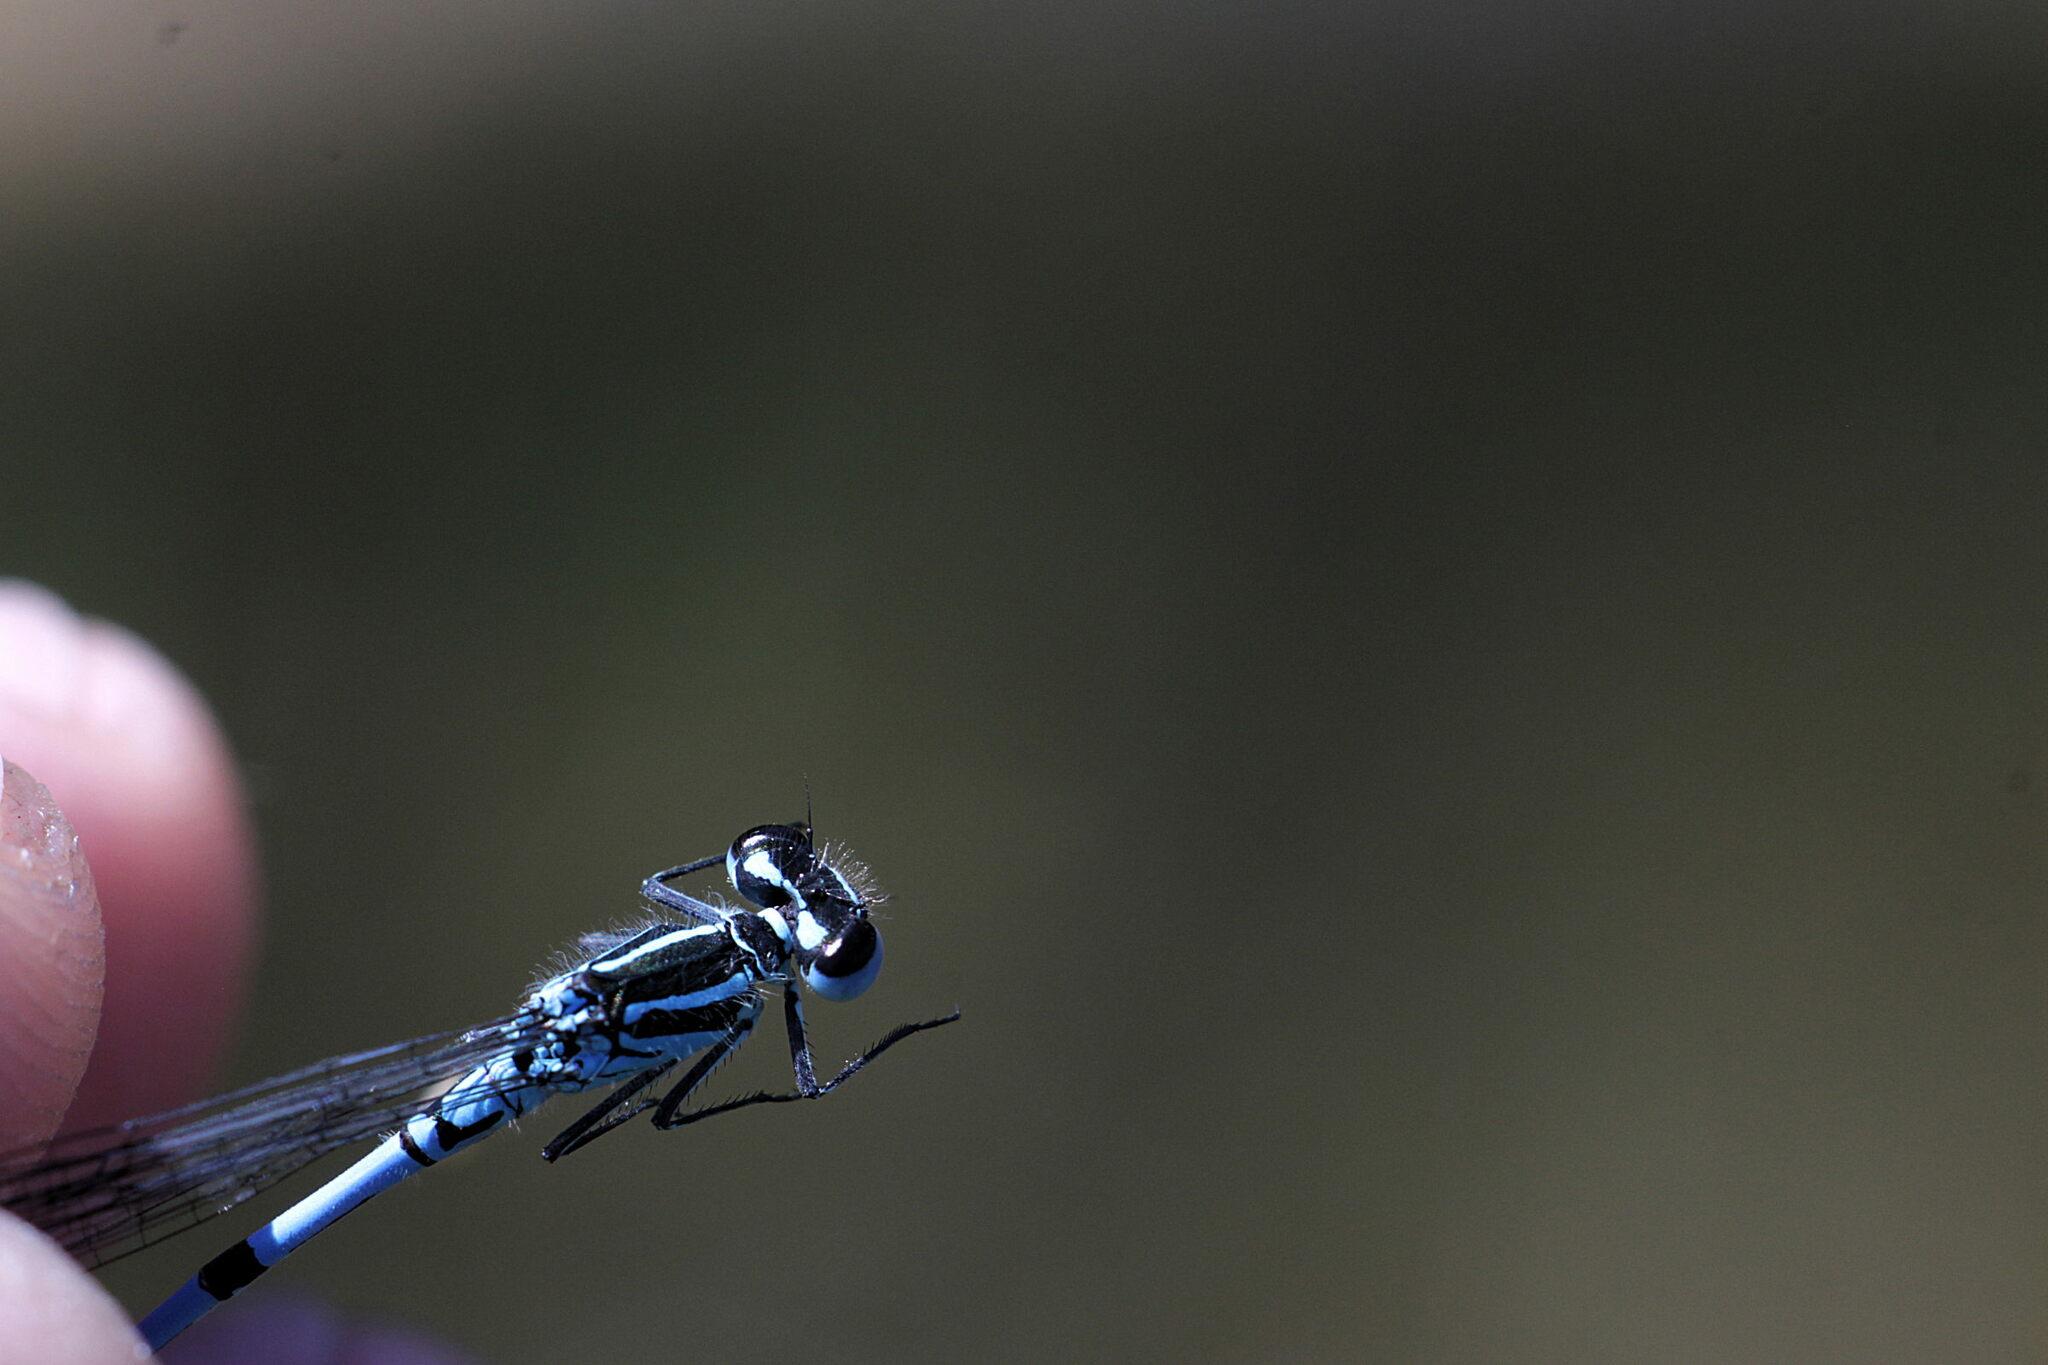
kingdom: Animalia
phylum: Arthropoda
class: Insecta
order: Odonata
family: Coenagrionidae
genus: Coenagrion
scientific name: Coenagrion puella
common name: Azure damselfly
